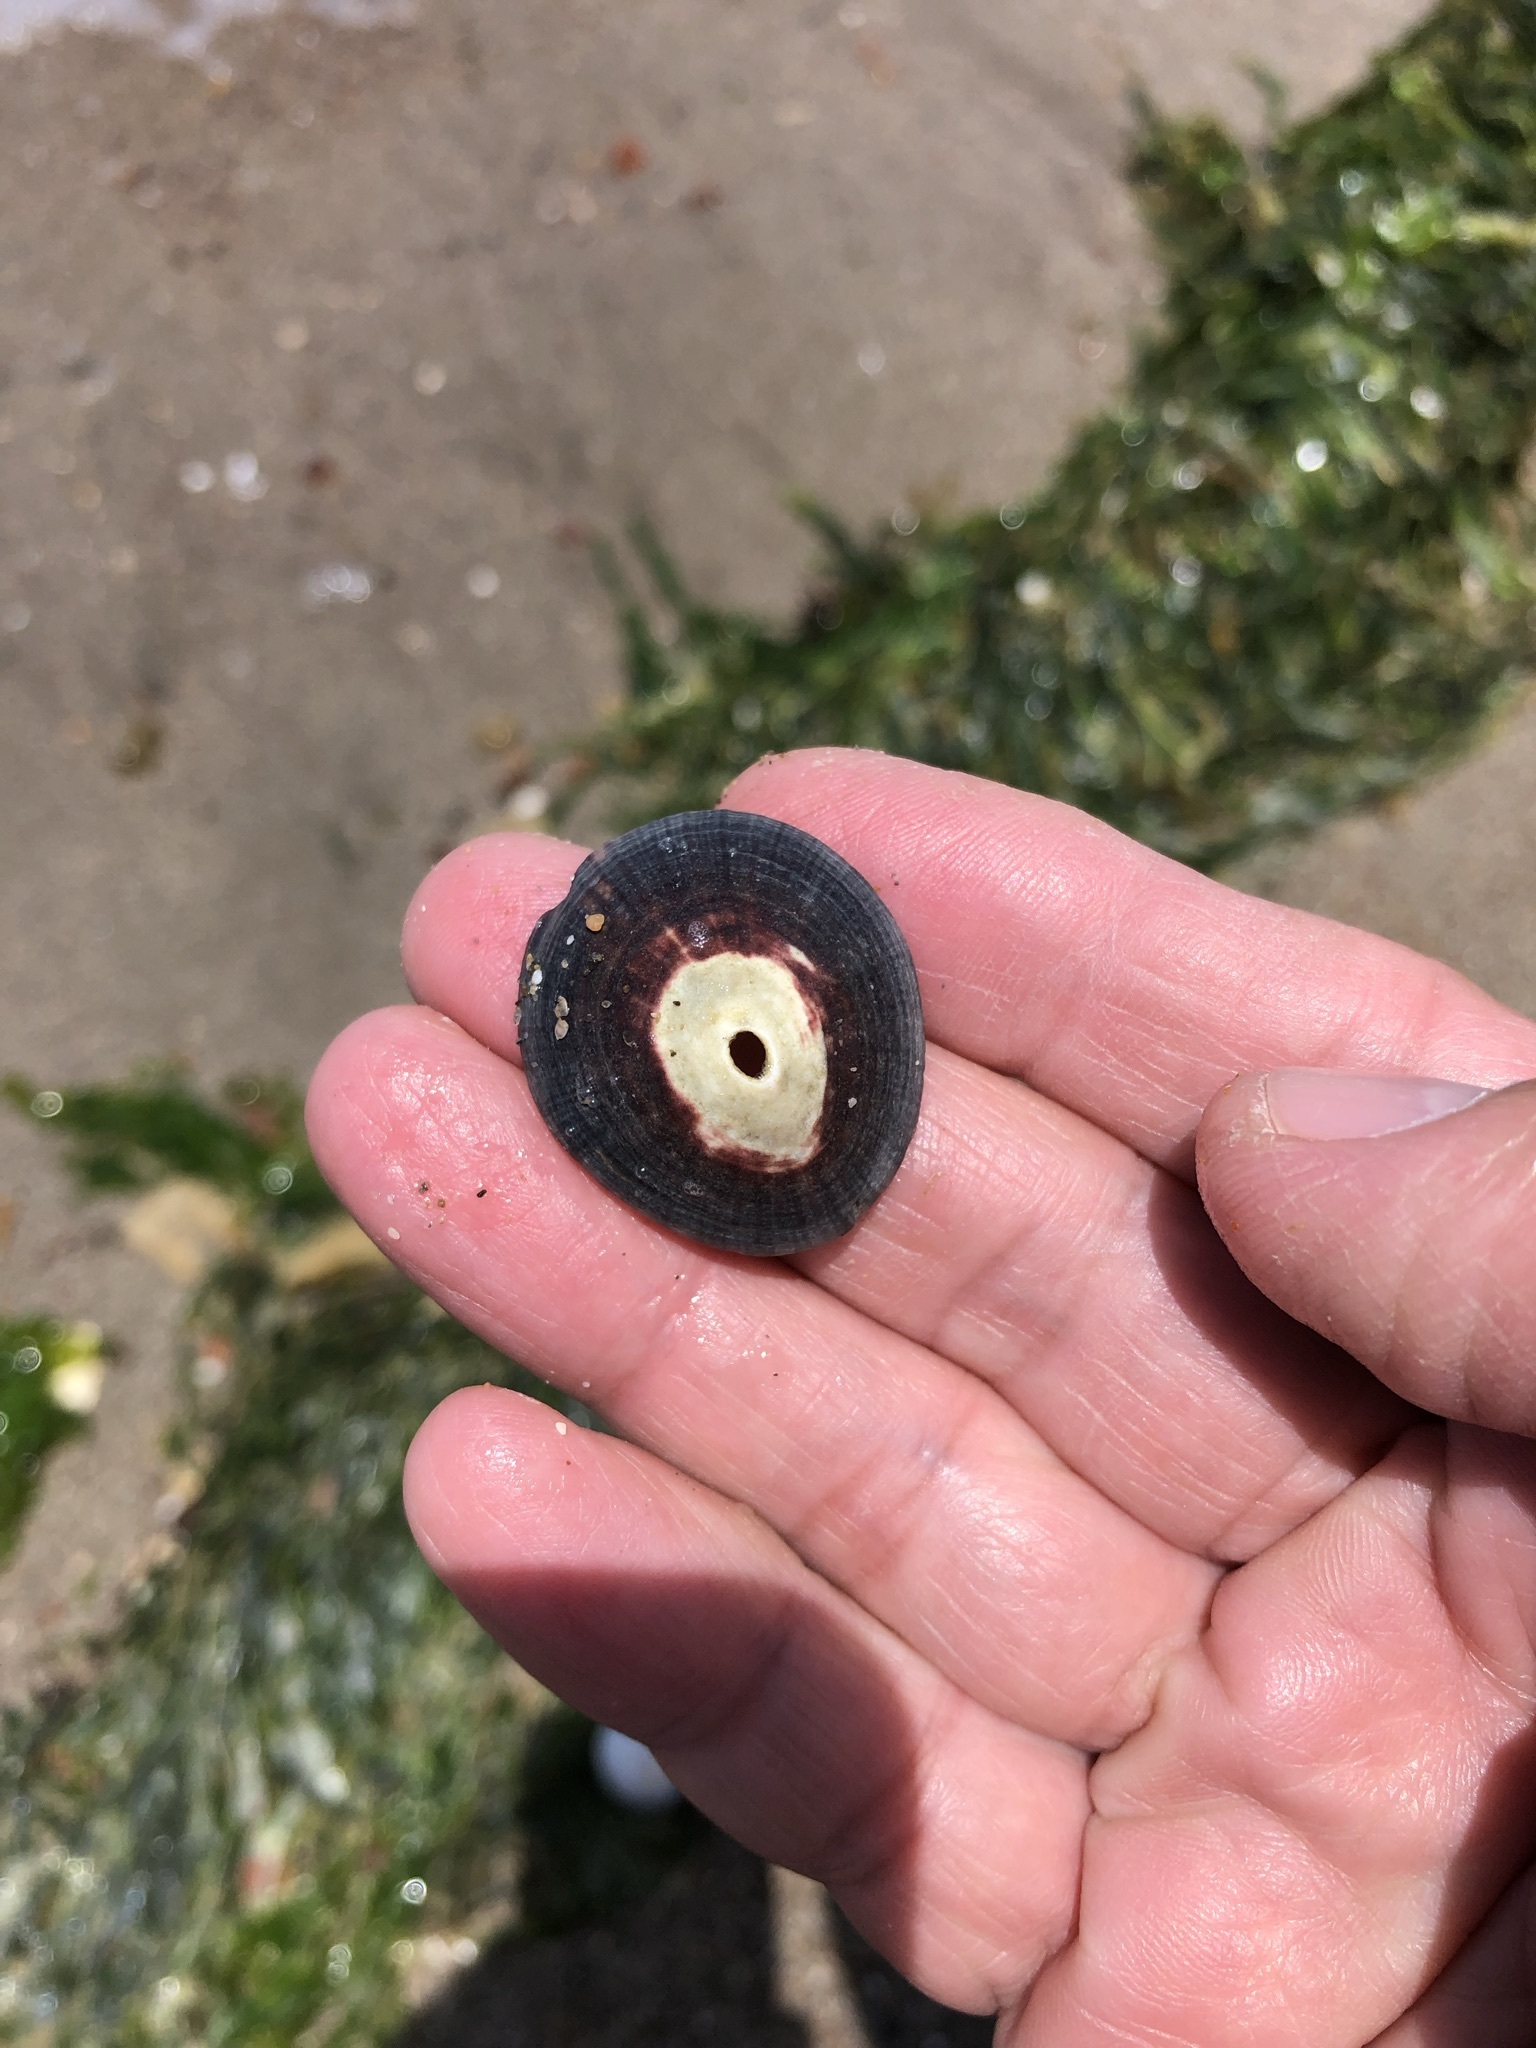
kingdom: Animalia
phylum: Mollusca
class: Gastropoda
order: Lepetellida
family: Fissurellidae
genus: Fissurella
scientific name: Fissurella peruviana
